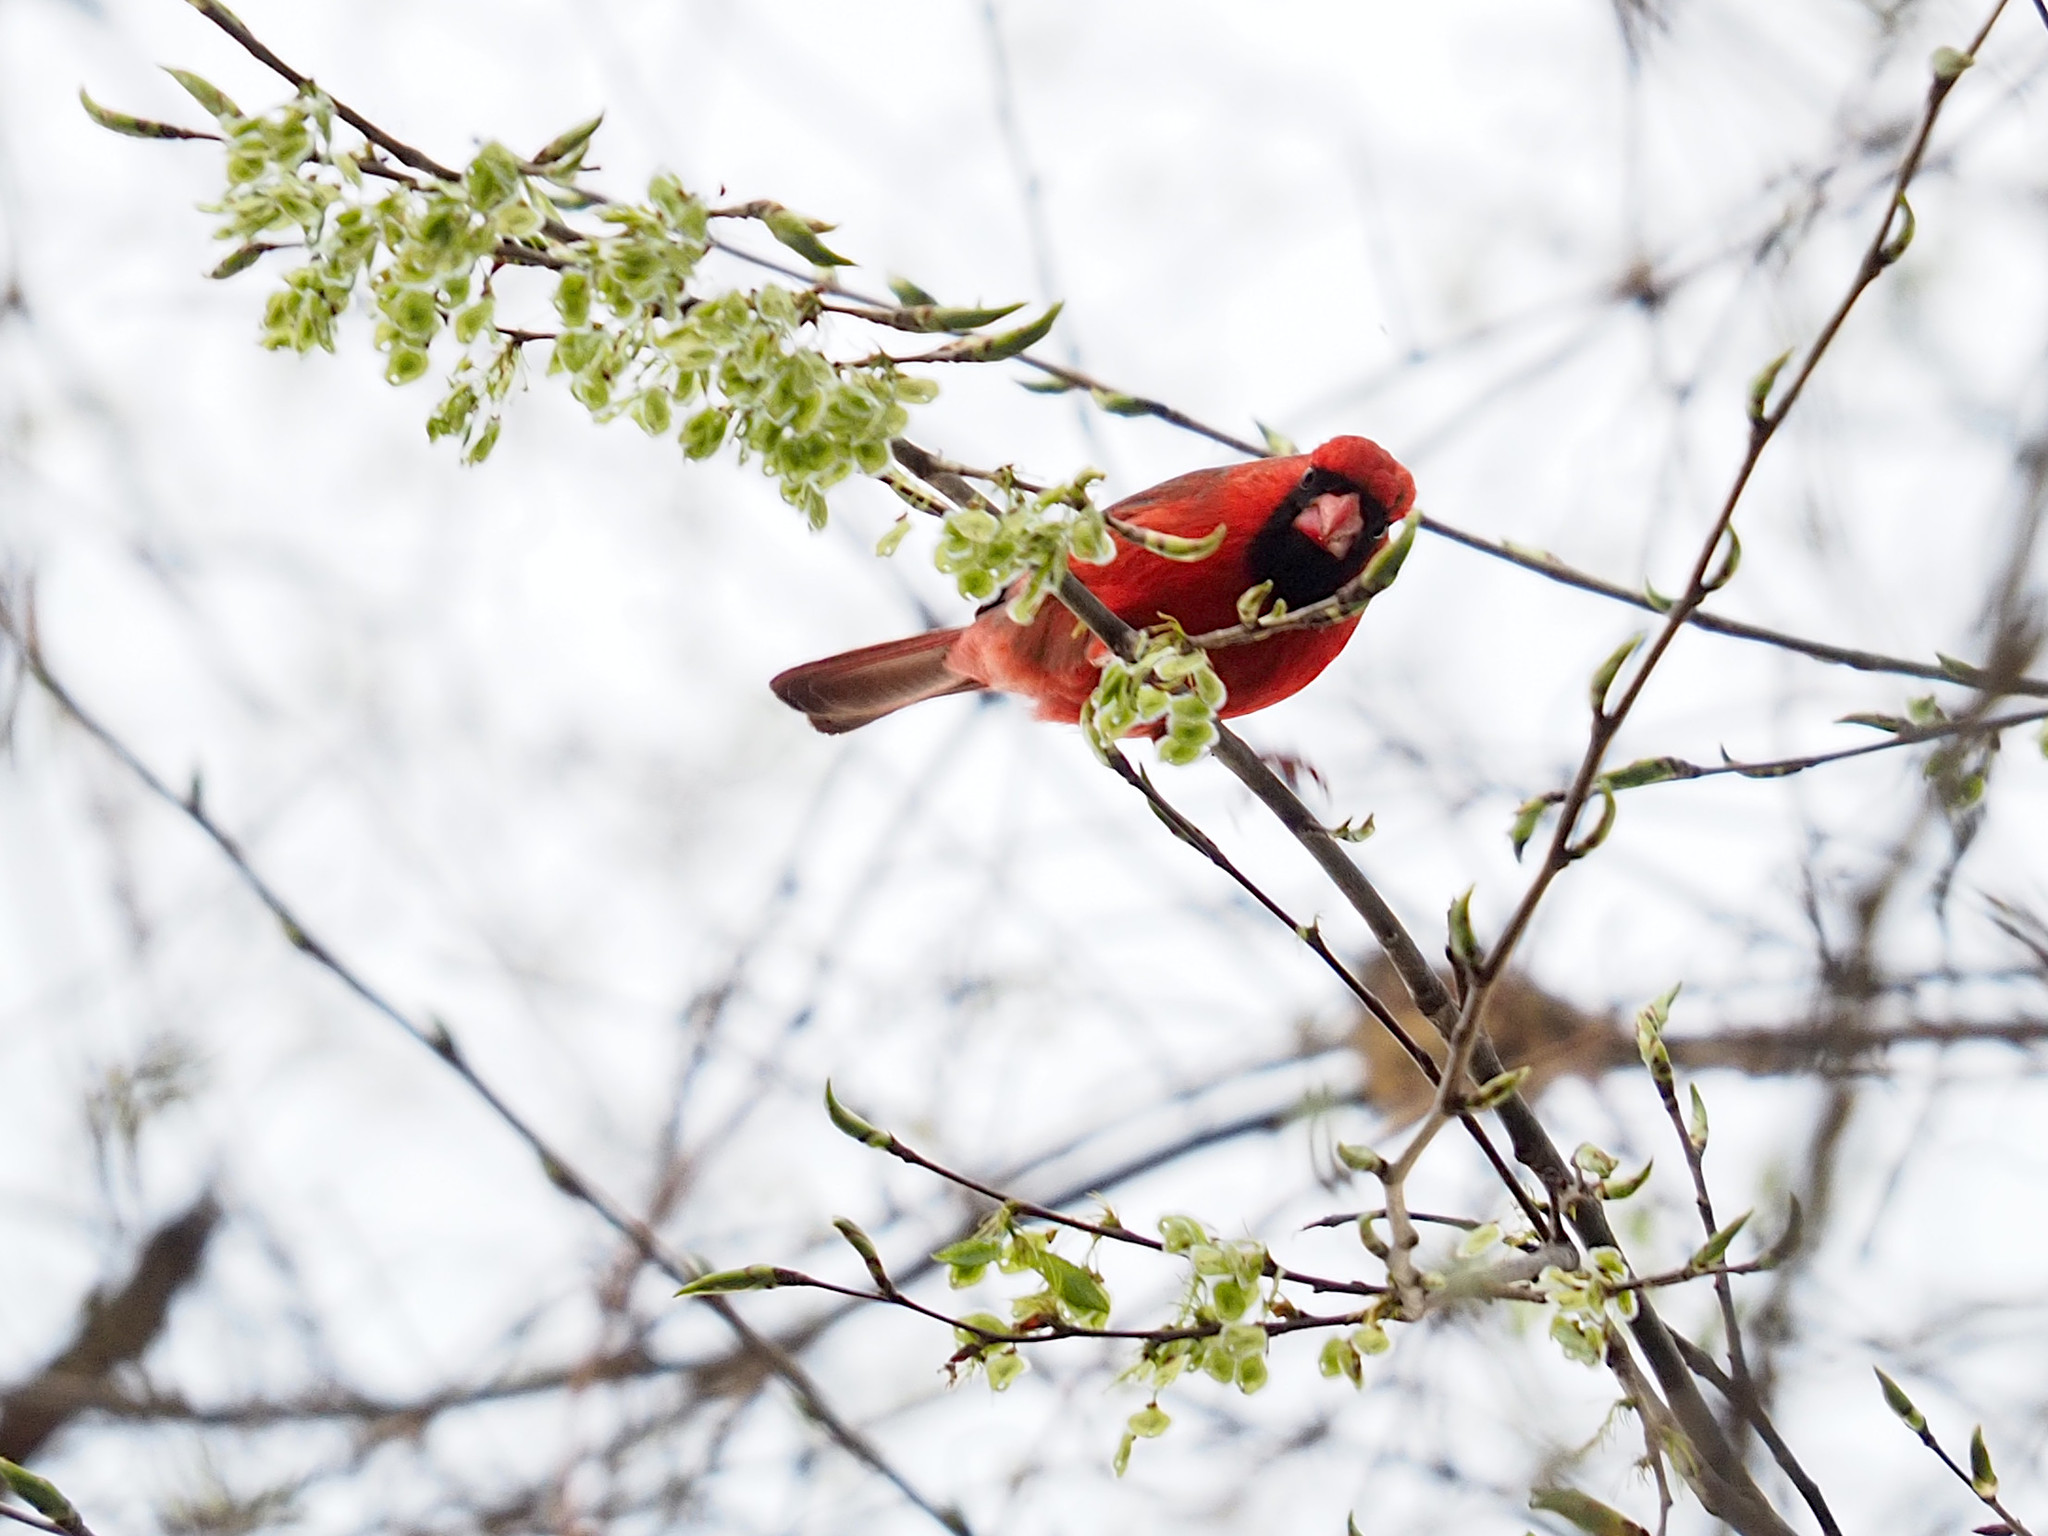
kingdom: Animalia
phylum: Chordata
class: Aves
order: Passeriformes
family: Cardinalidae
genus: Cardinalis
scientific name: Cardinalis cardinalis
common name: Northern cardinal
